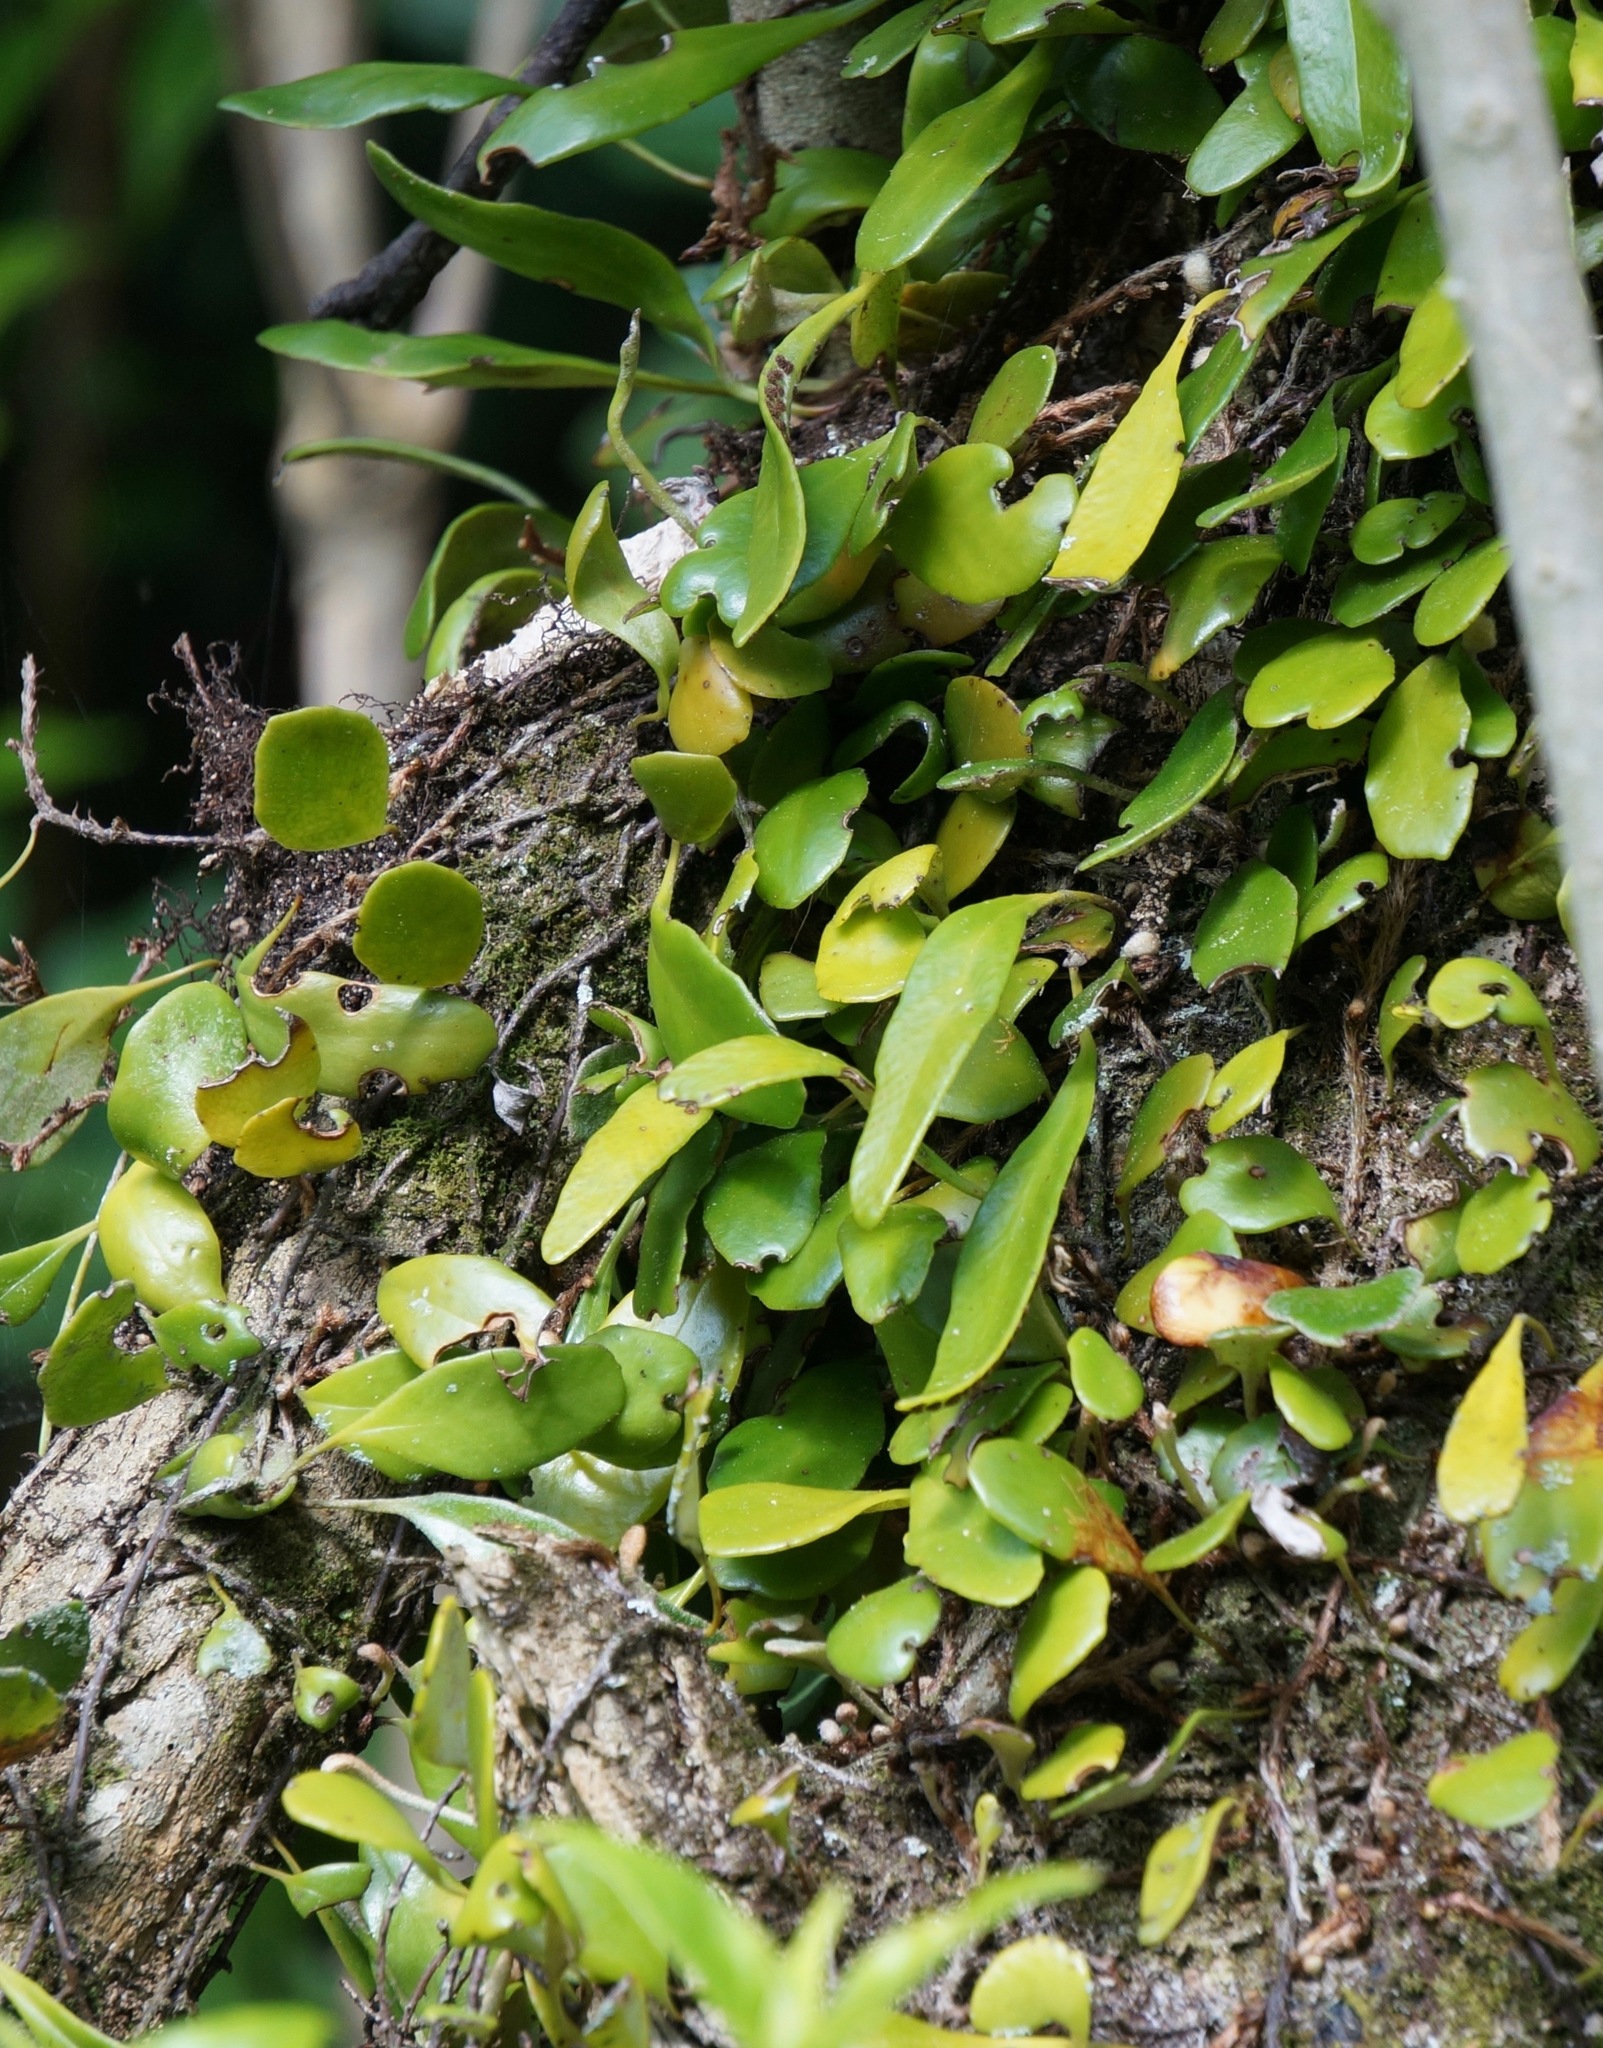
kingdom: Plantae
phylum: Tracheophyta
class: Polypodiopsida
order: Polypodiales
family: Polypodiaceae
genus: Pyrrosia
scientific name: Pyrrosia eleagnifolia
